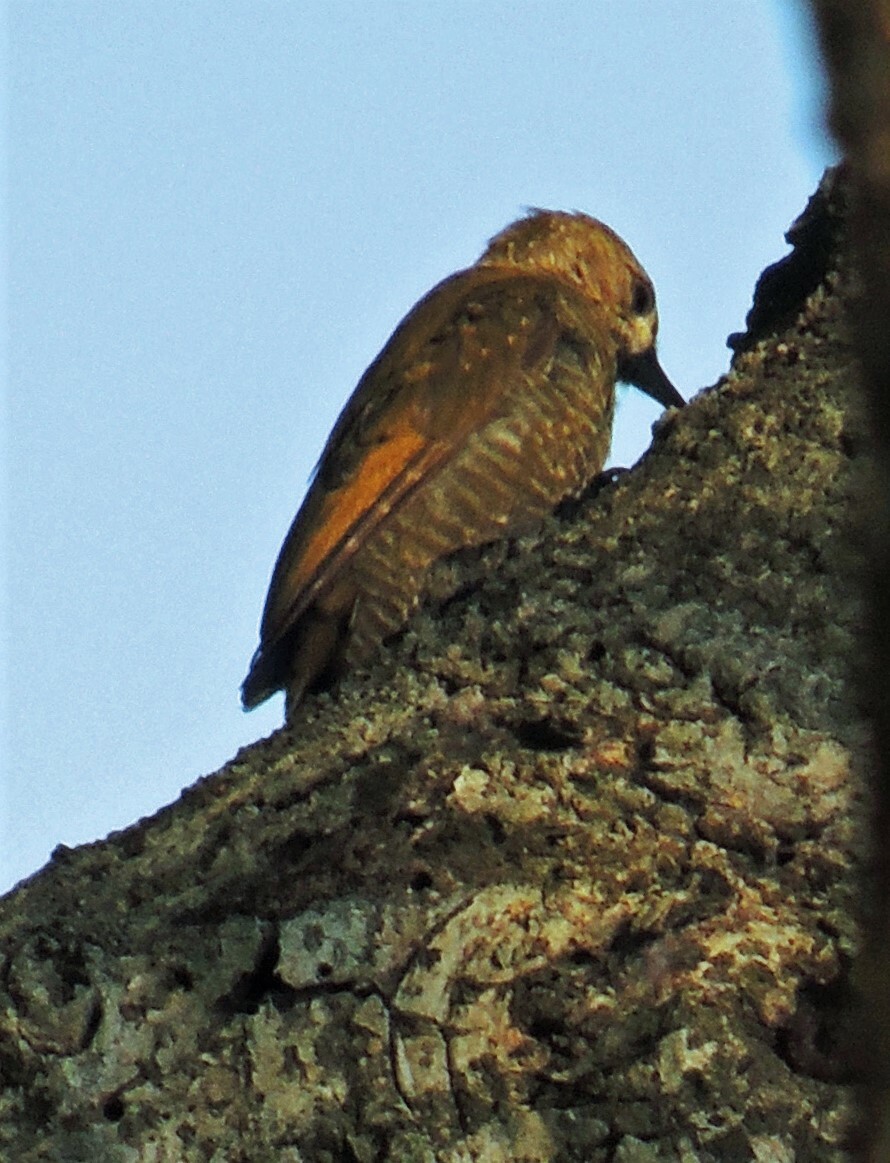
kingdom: Animalia
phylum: Chordata
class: Aves
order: Piciformes
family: Picidae
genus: Veniliornis
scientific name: Veniliornis passerinus
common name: Little woodpecker
